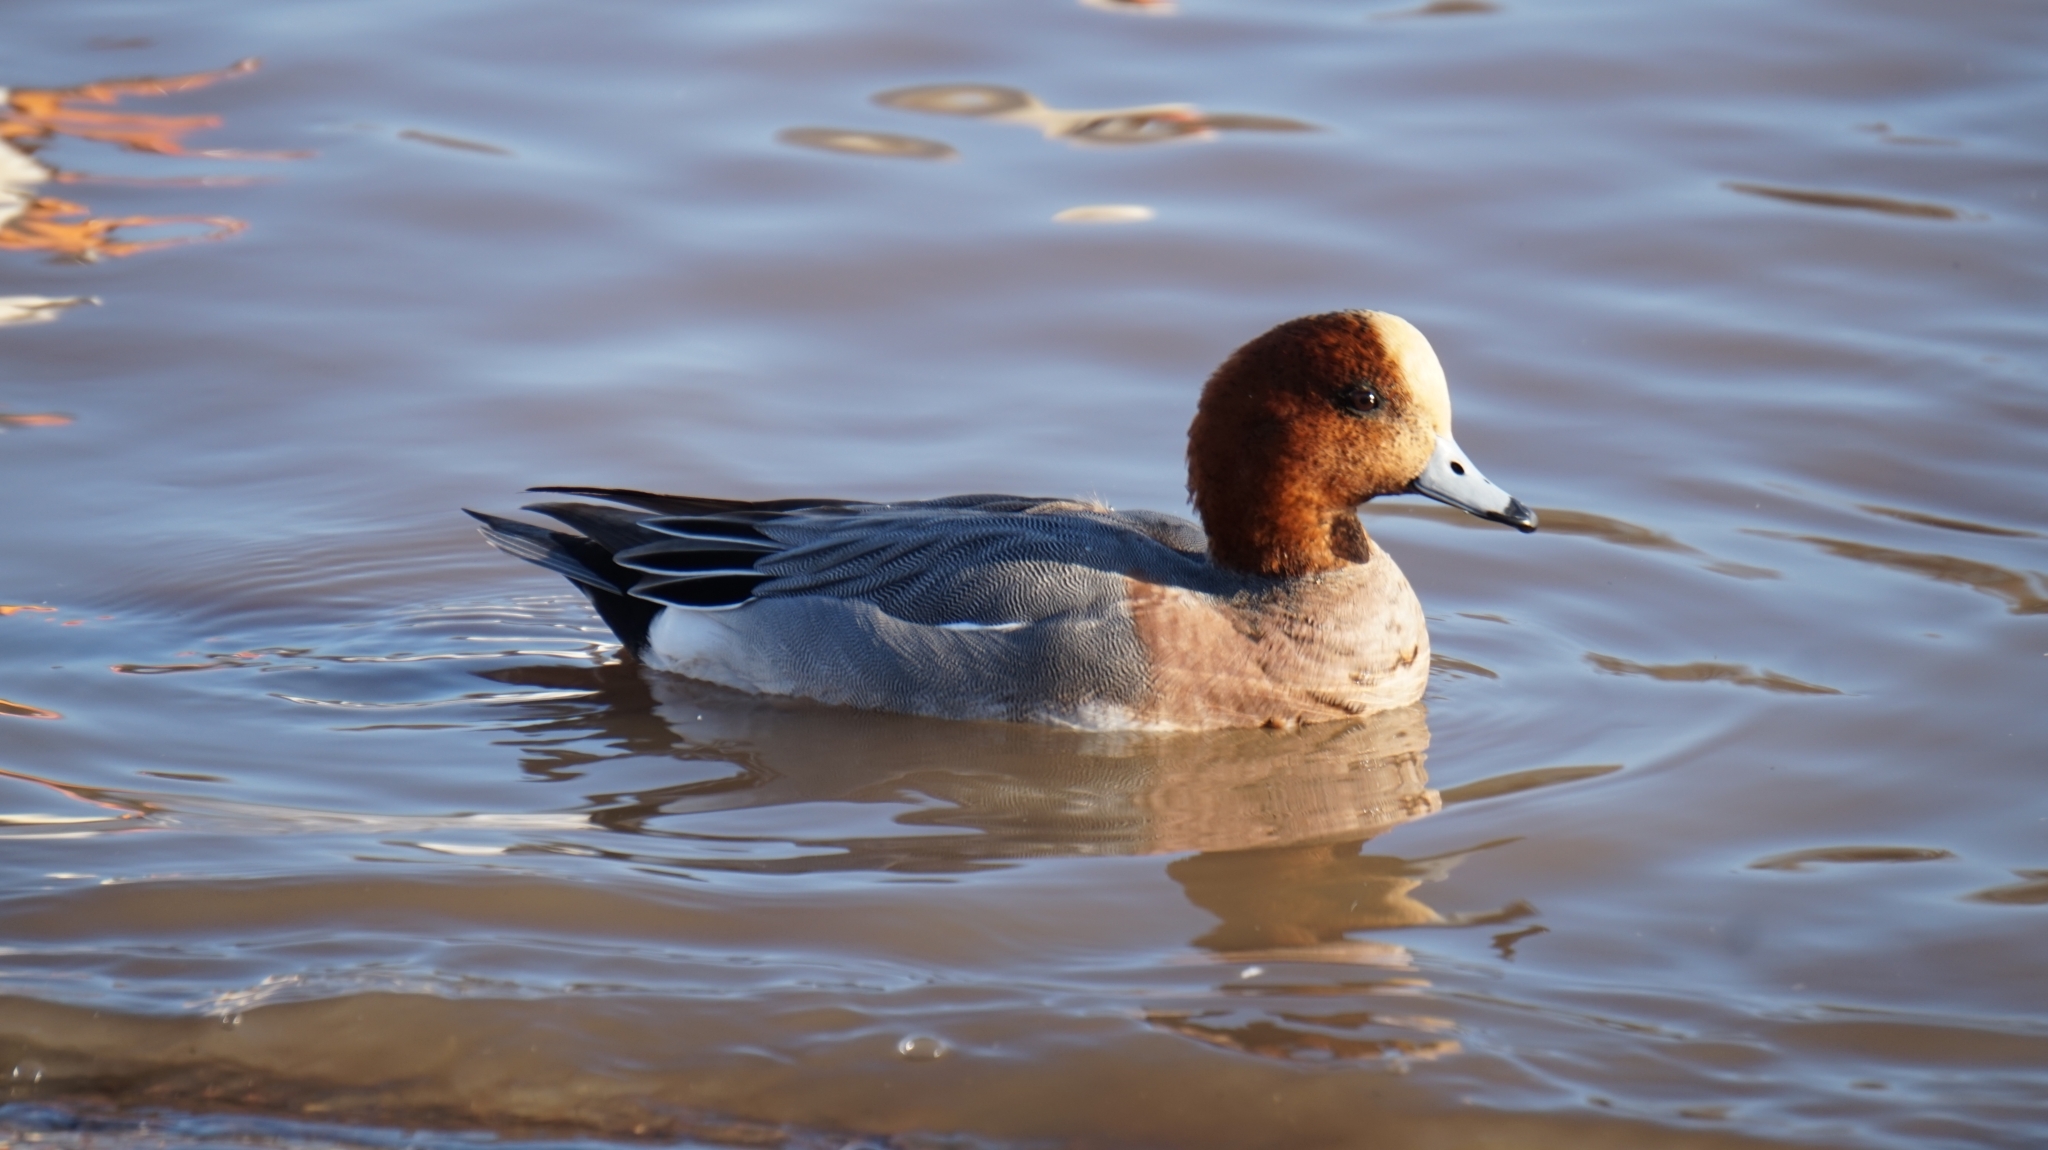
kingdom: Animalia
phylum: Chordata
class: Aves
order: Anseriformes
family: Anatidae
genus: Mareca
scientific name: Mareca penelope
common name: Eurasian wigeon
